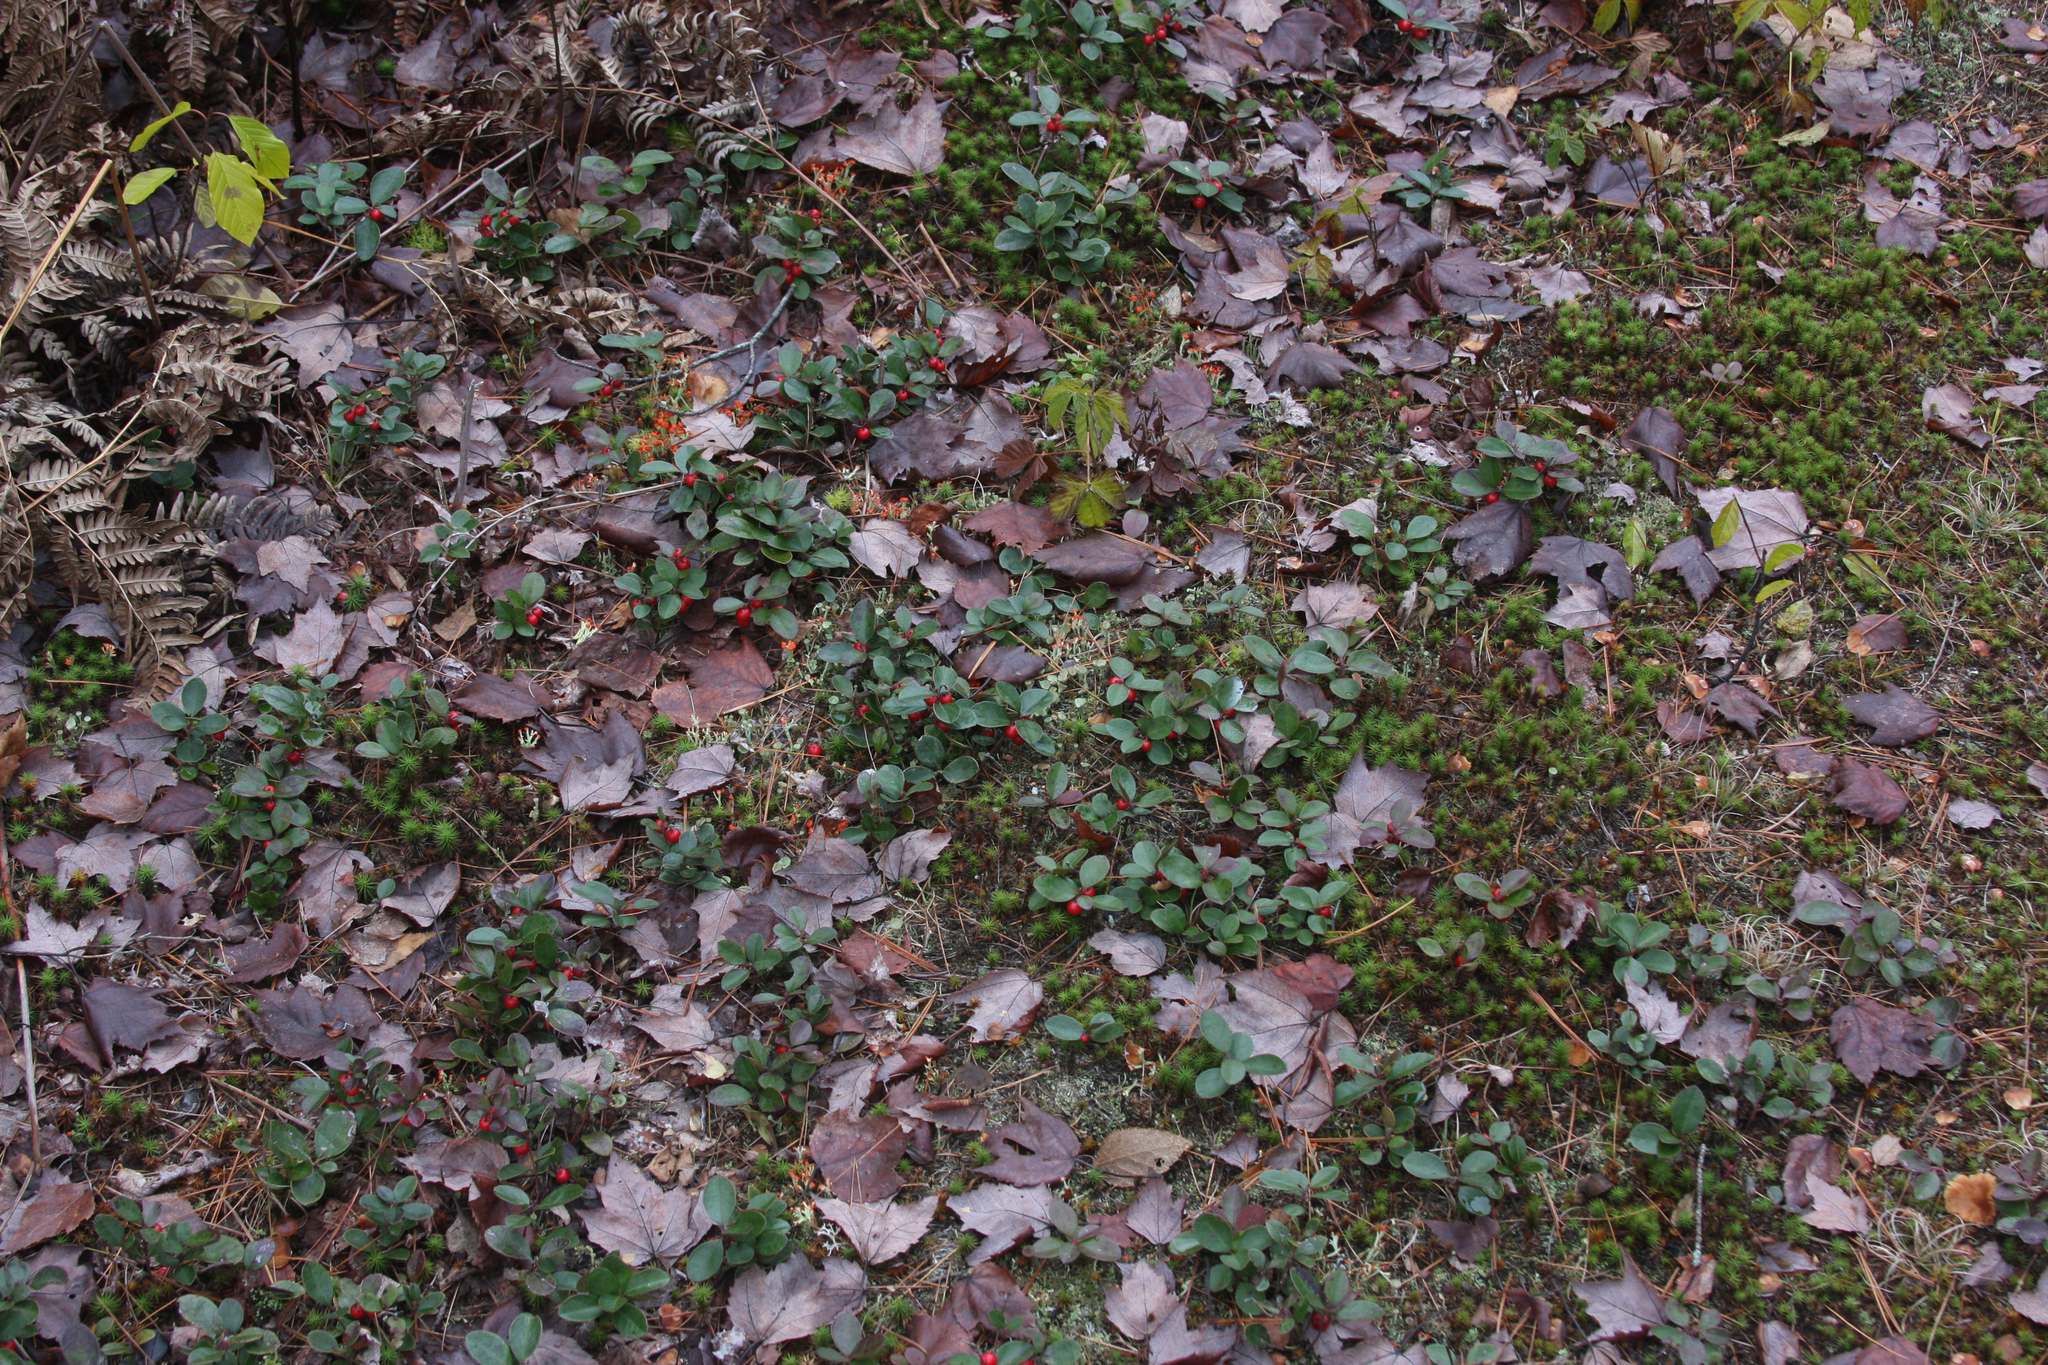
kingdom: Plantae
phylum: Tracheophyta
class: Magnoliopsida
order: Ericales
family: Ericaceae
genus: Gaultheria
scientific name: Gaultheria procumbens
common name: Checkerberry
